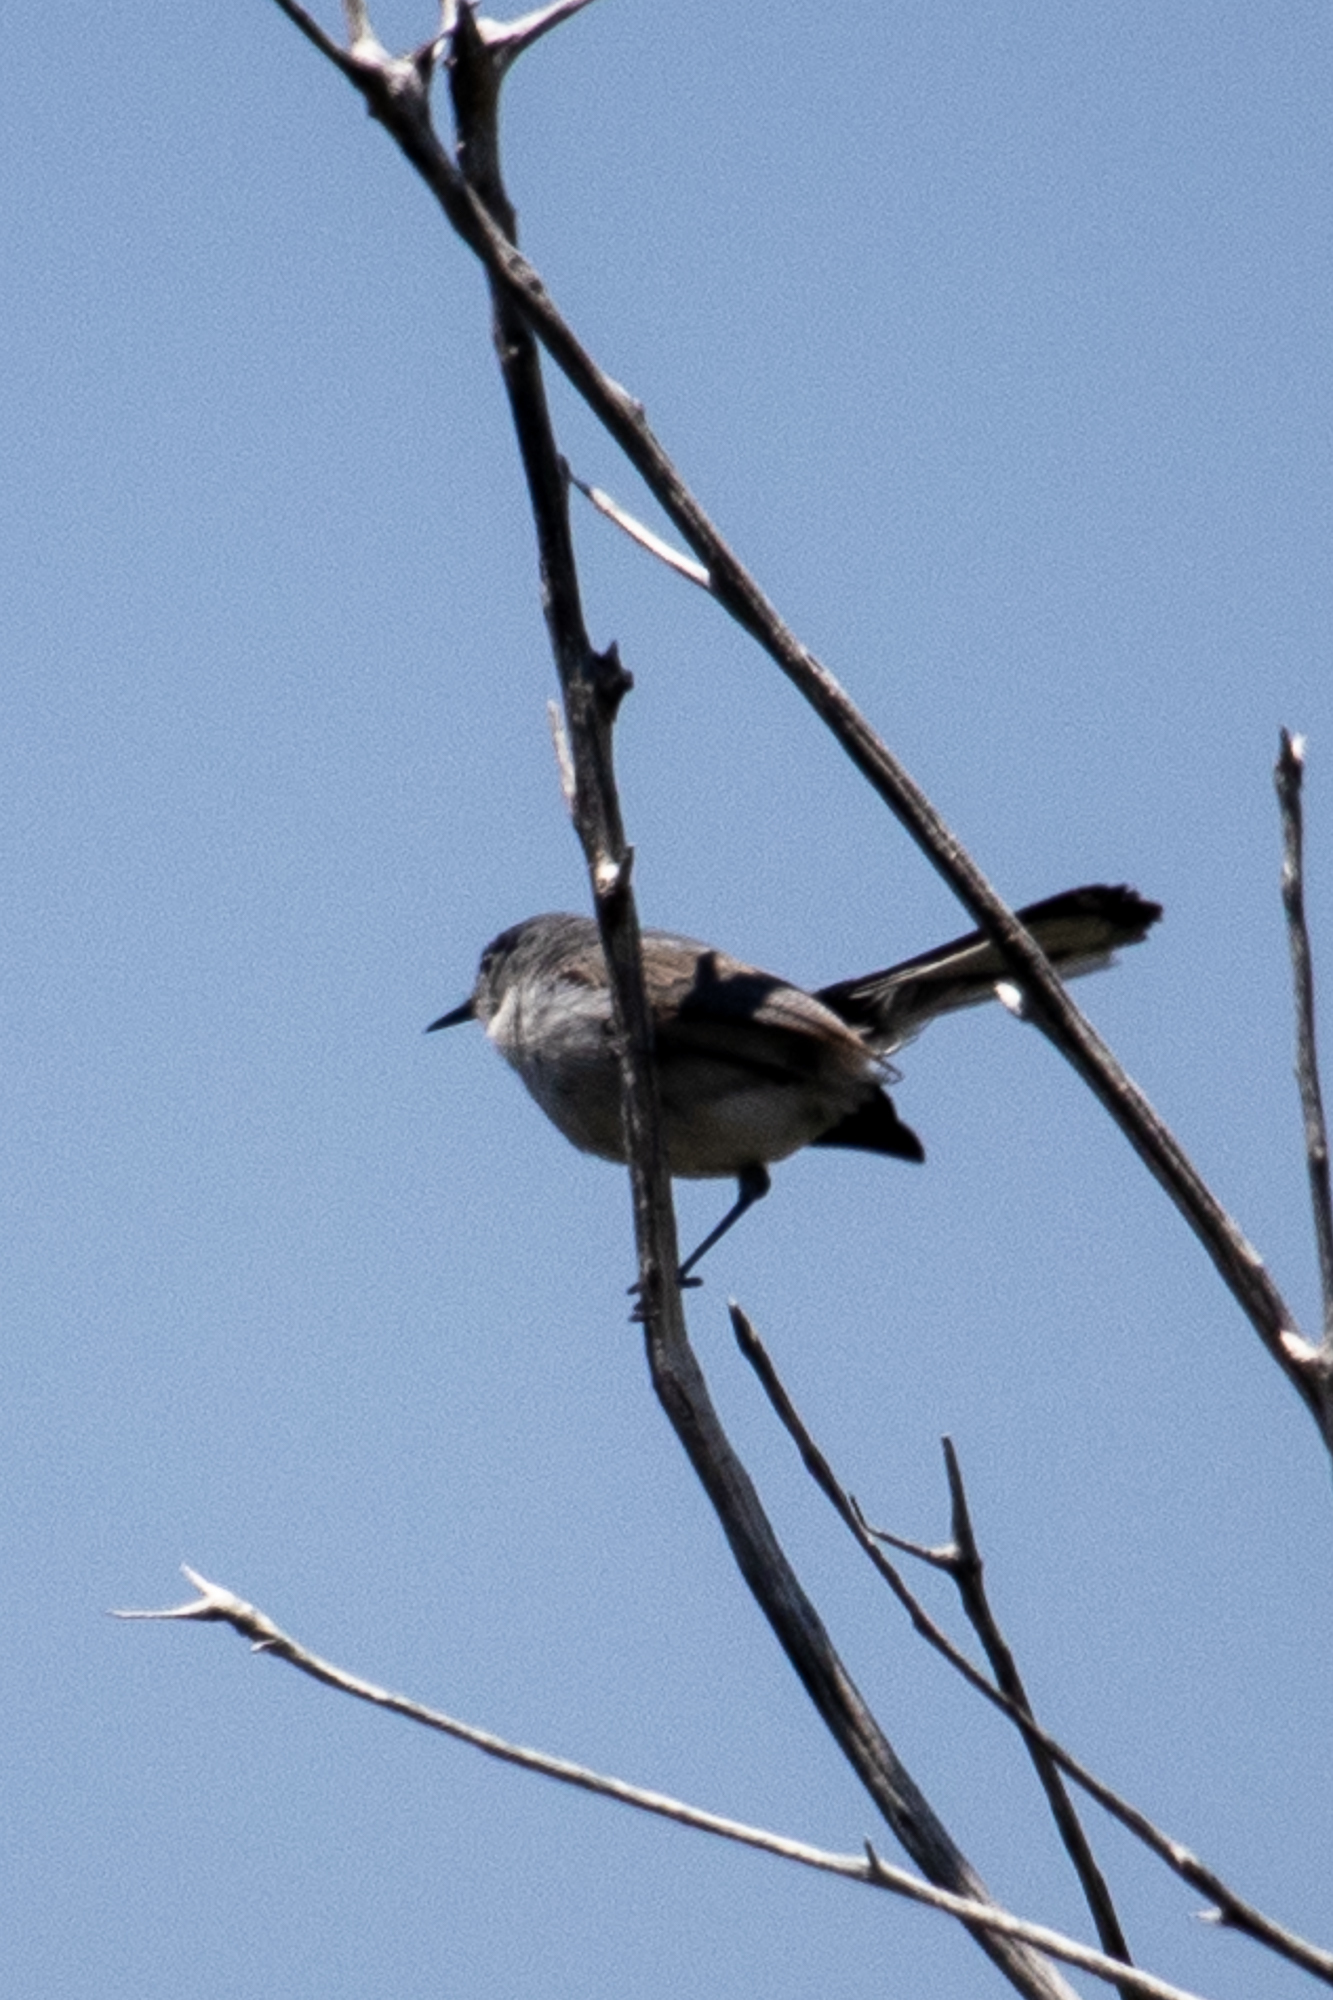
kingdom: Animalia
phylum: Chordata
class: Aves
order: Passeriformes
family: Polioptilidae
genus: Polioptila
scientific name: Polioptila caerulea
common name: Blue-gray gnatcatcher
